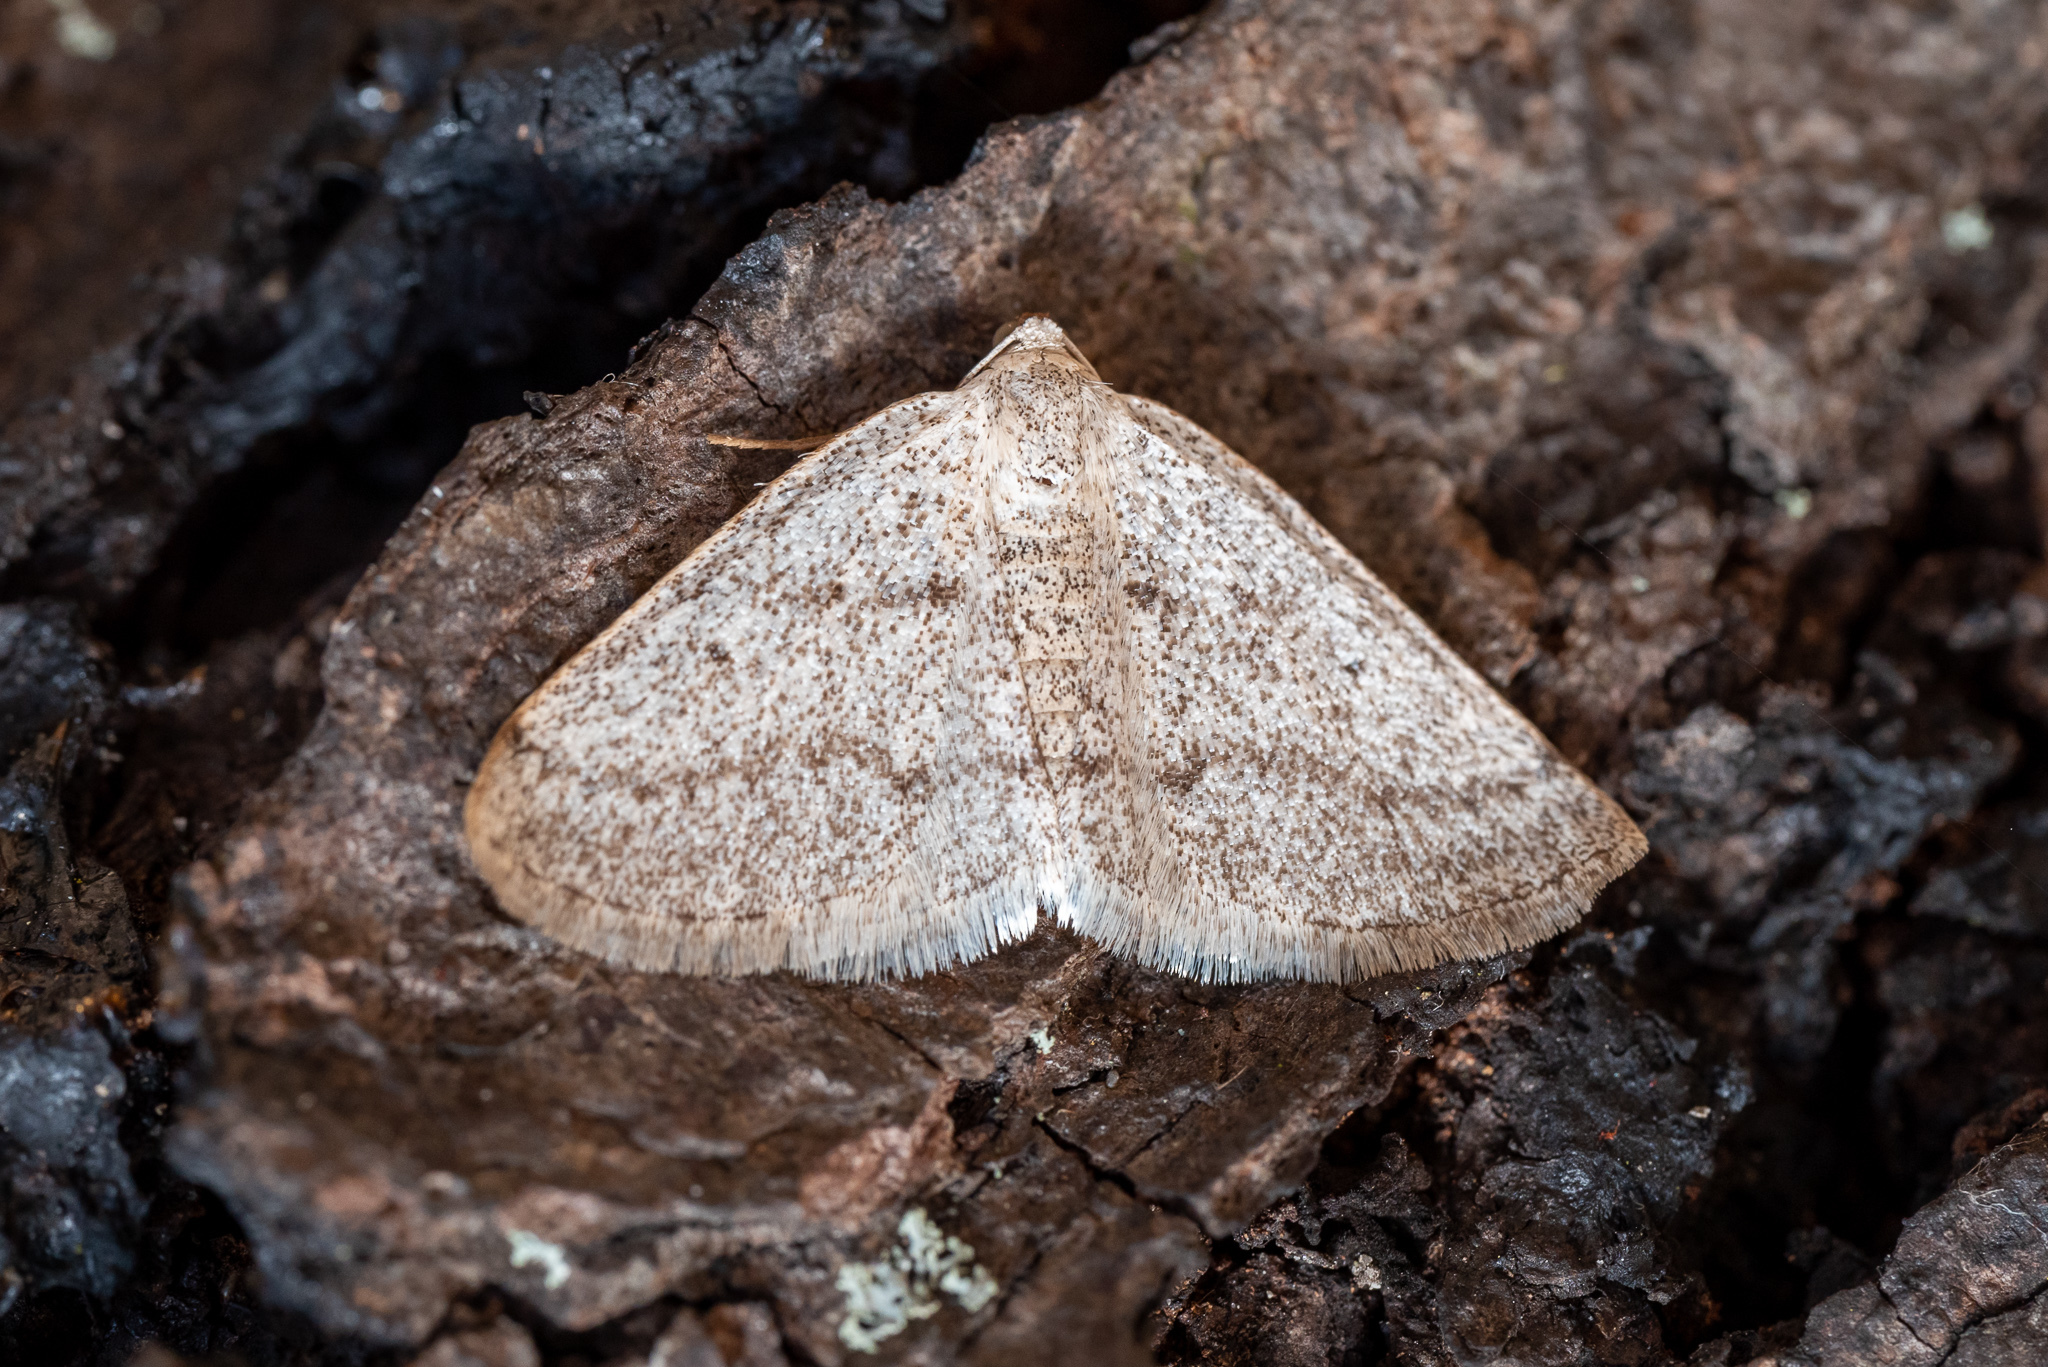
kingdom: Animalia
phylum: Arthropoda
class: Insecta
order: Lepidoptera
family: Geometridae
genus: Lomographa
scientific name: Lomographa glomeraria
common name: Gray spring moth
